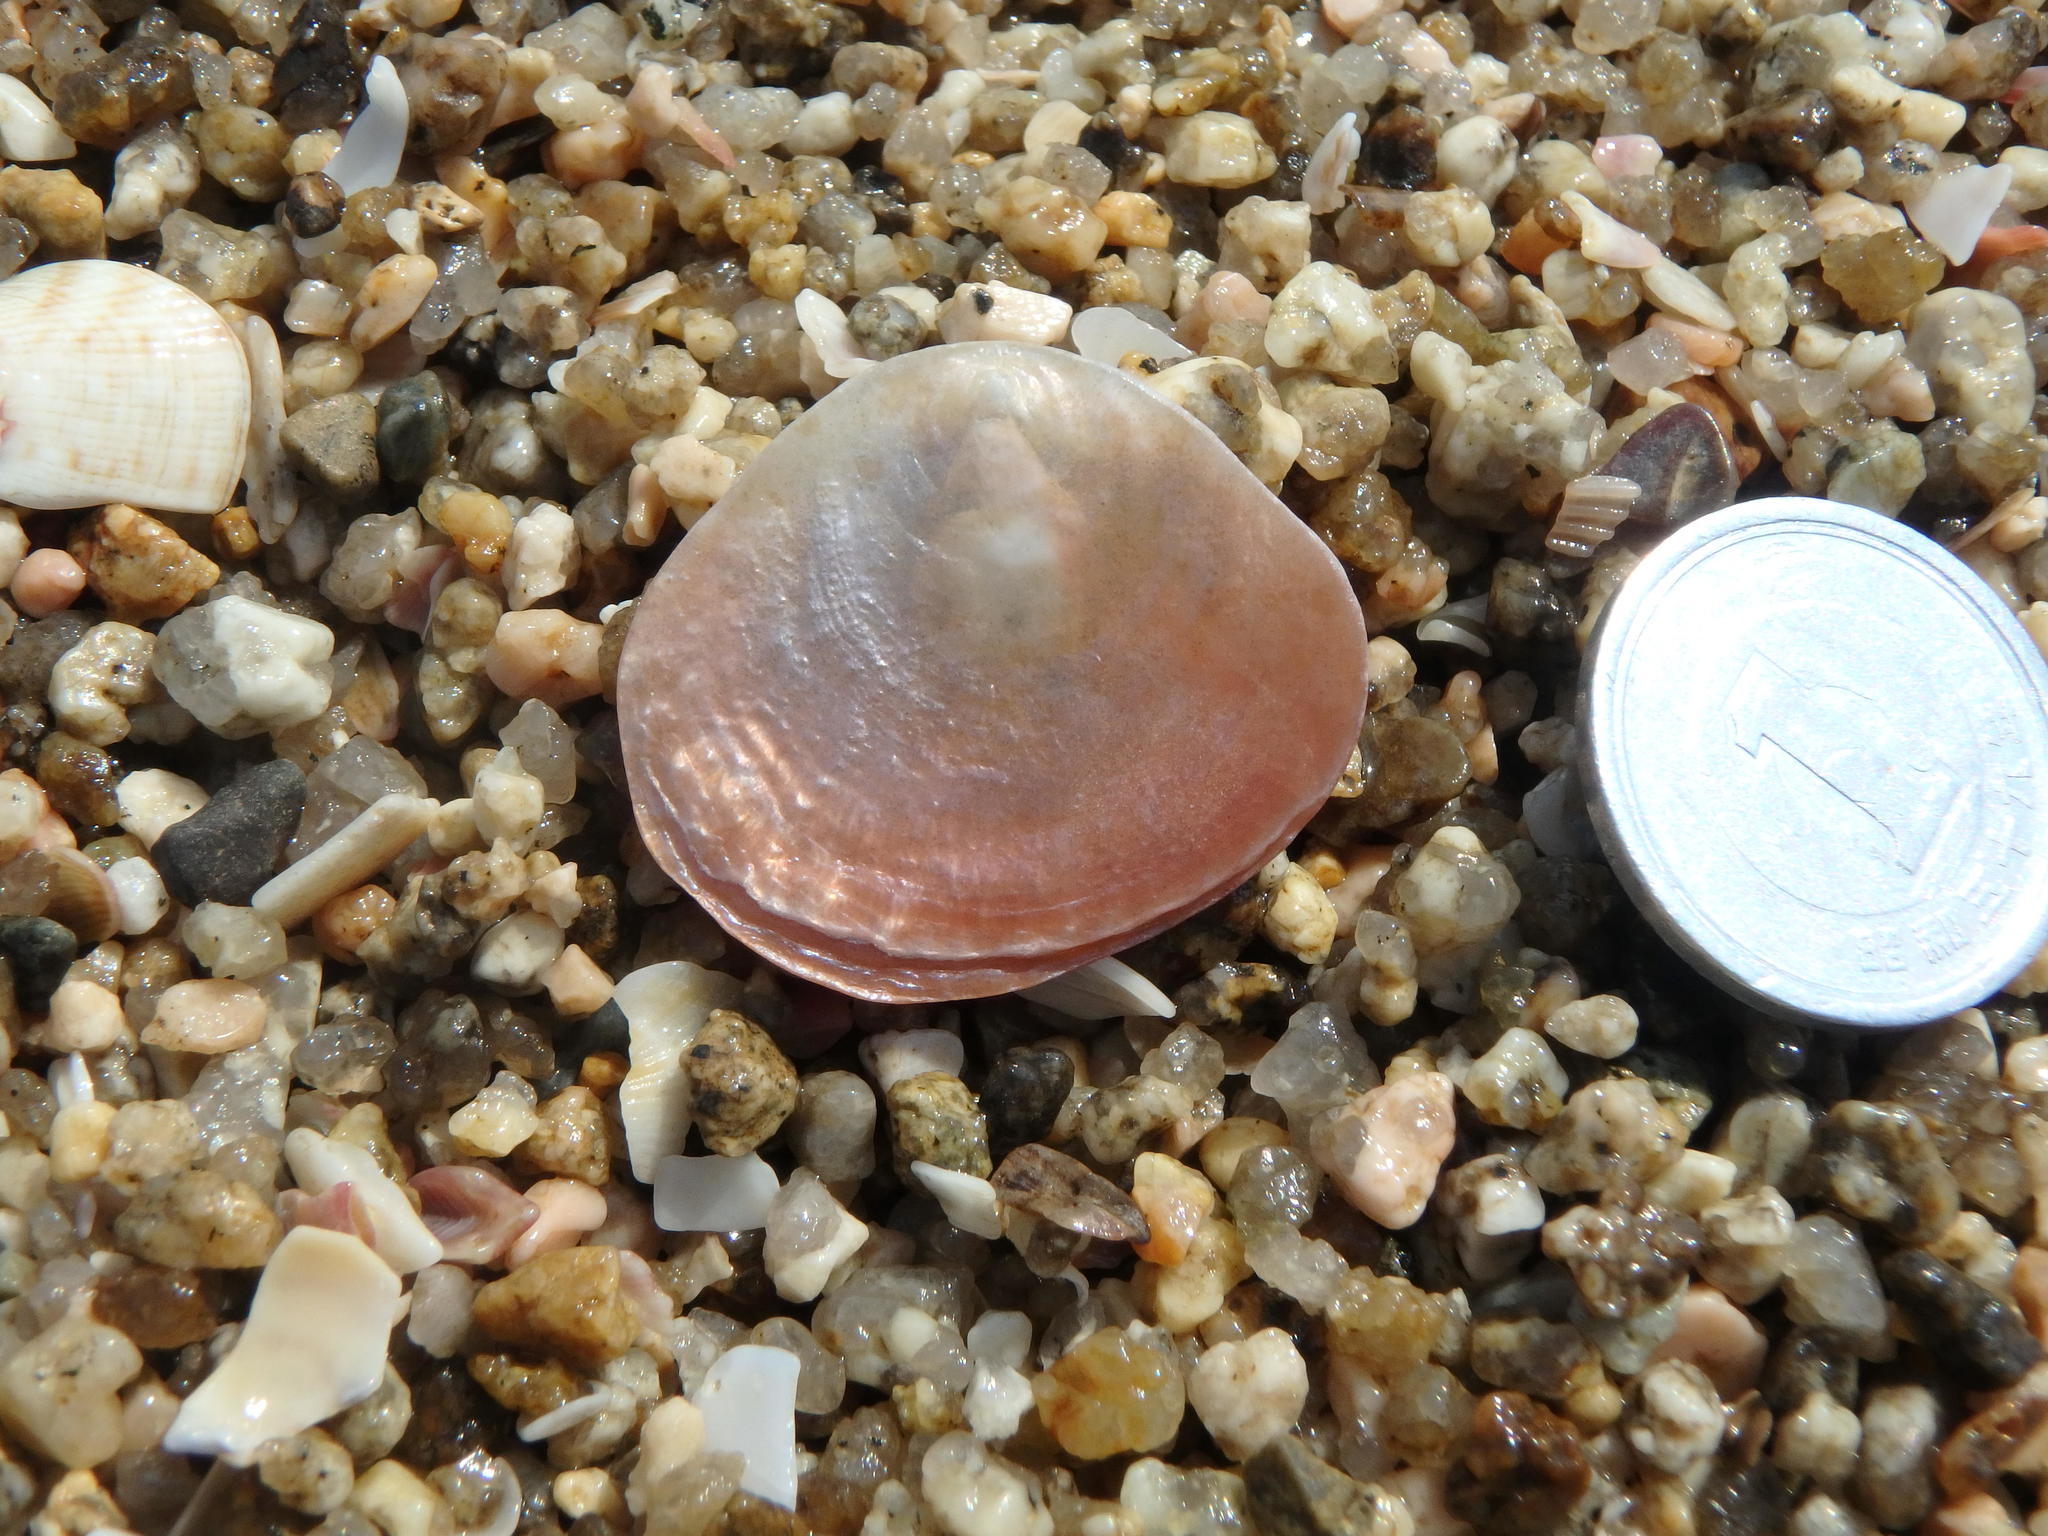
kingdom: Animalia
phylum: Mollusca
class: Bivalvia
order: Pectinida
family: Anomiidae
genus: Anomia
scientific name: Anomia chinensis
